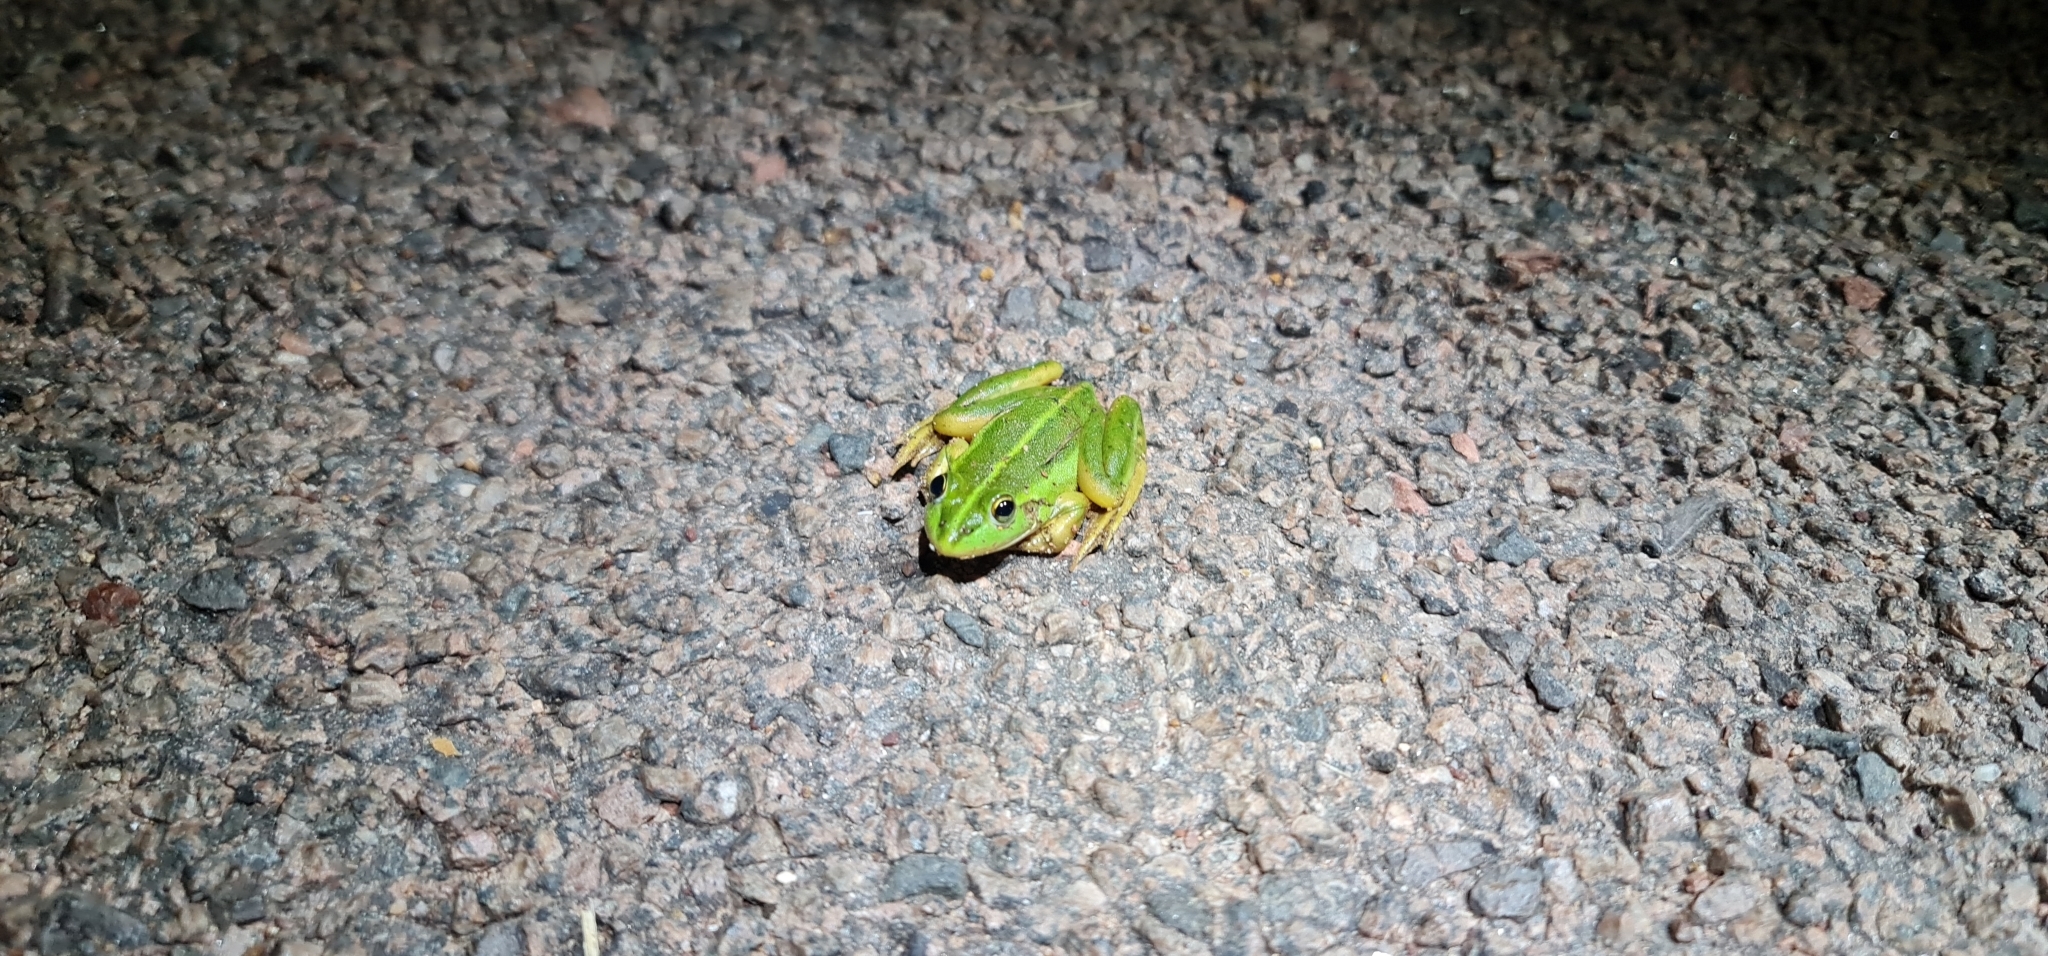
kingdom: Animalia
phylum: Chordata
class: Amphibia
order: Anura
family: Pelodryadidae
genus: Ranoidea
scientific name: Ranoidea dahlii
